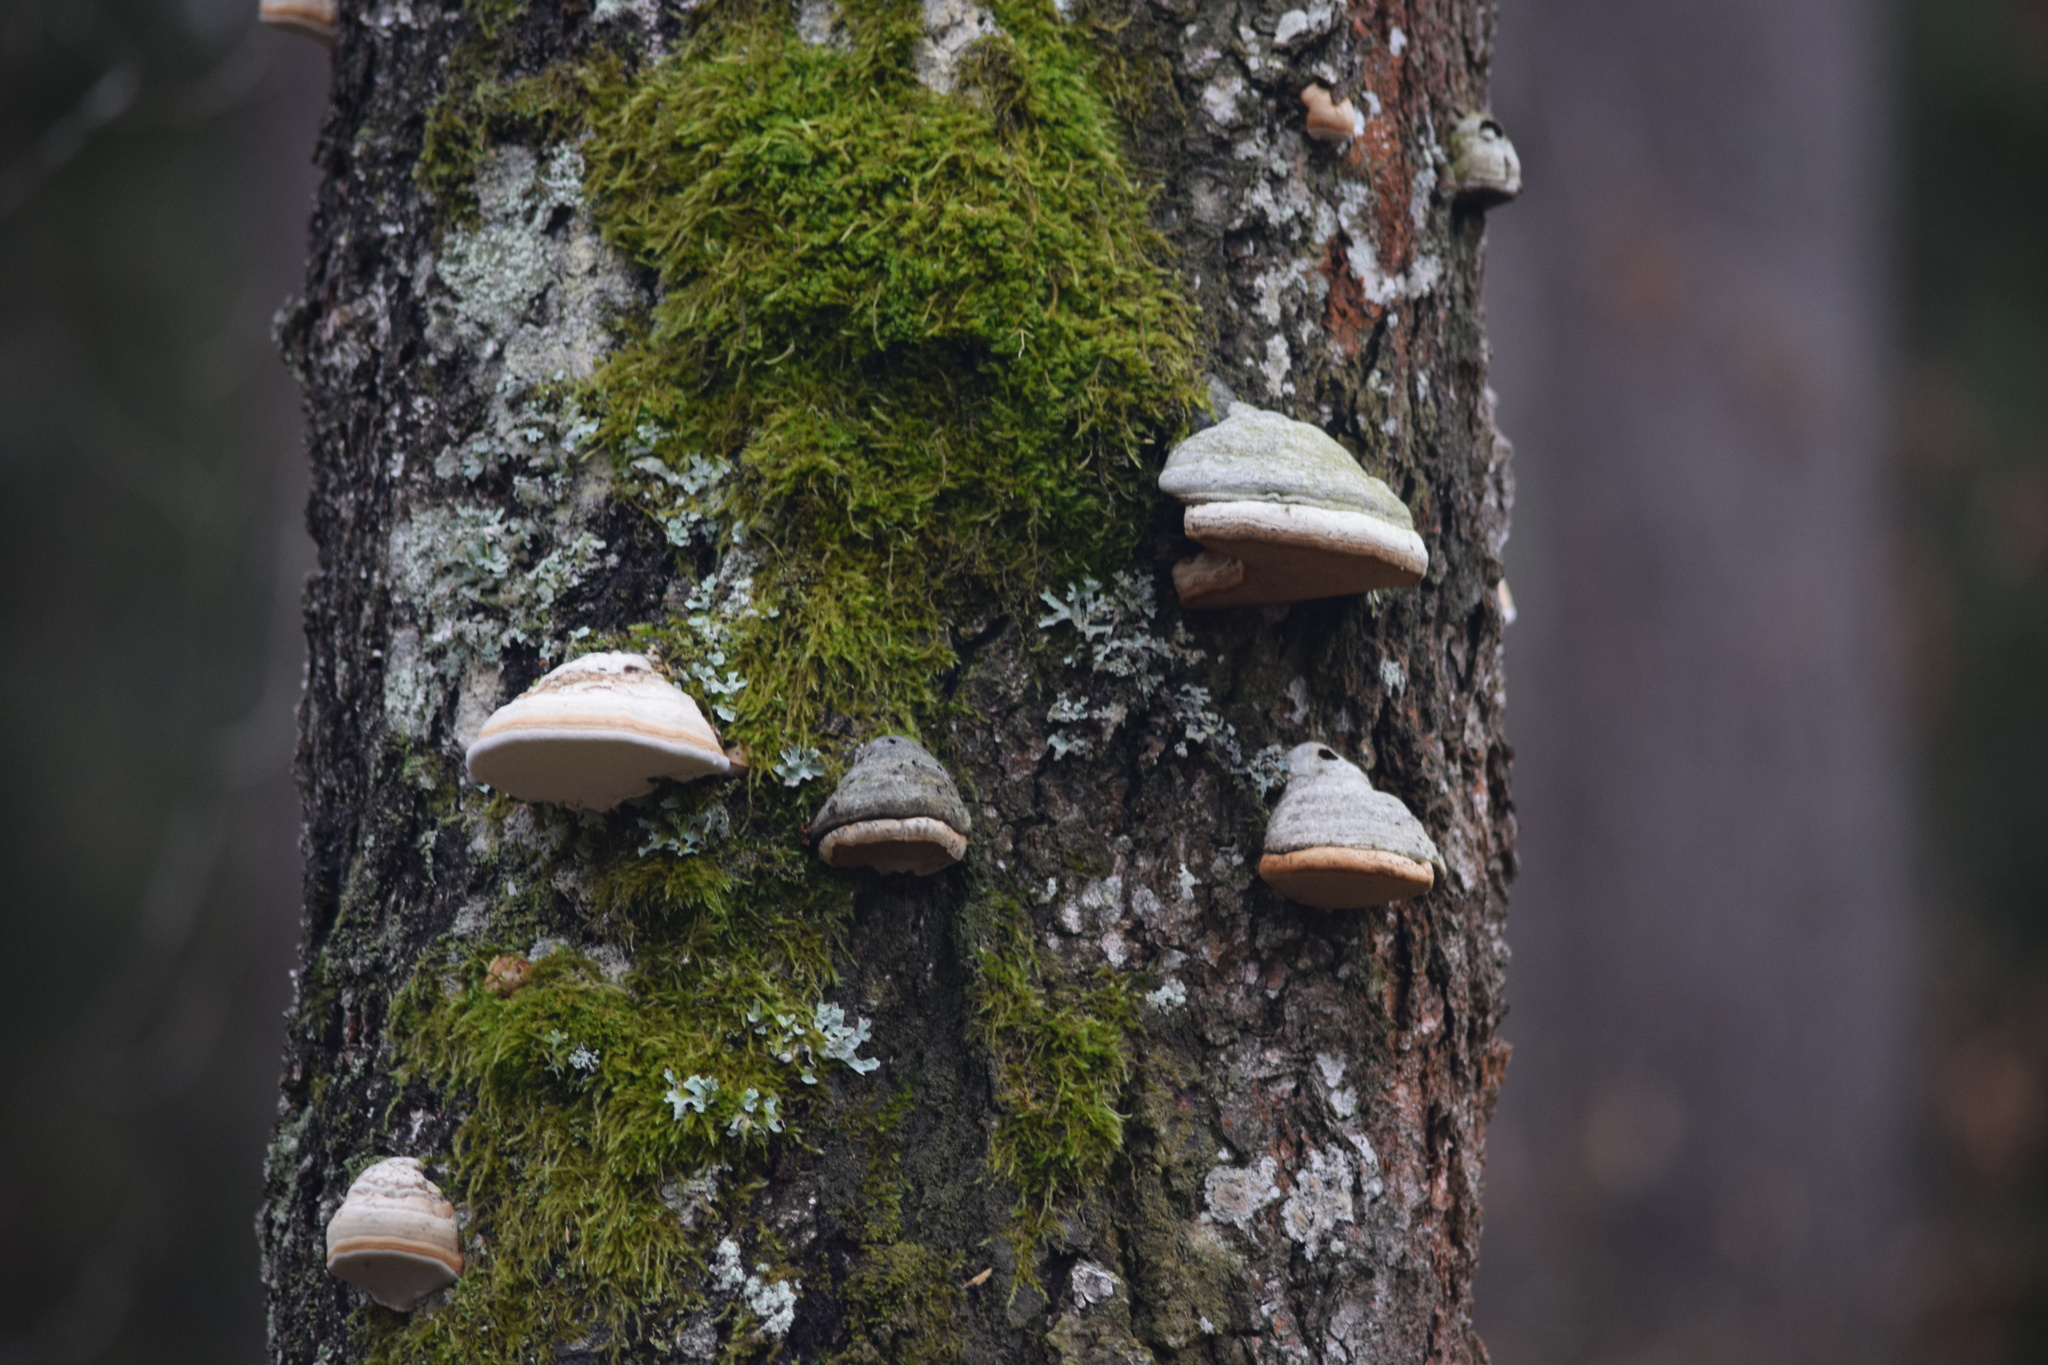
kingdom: Fungi
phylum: Basidiomycota
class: Agaricomycetes
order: Polyporales
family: Polyporaceae
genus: Fomes
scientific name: Fomes fomentarius
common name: Hoof fungus
